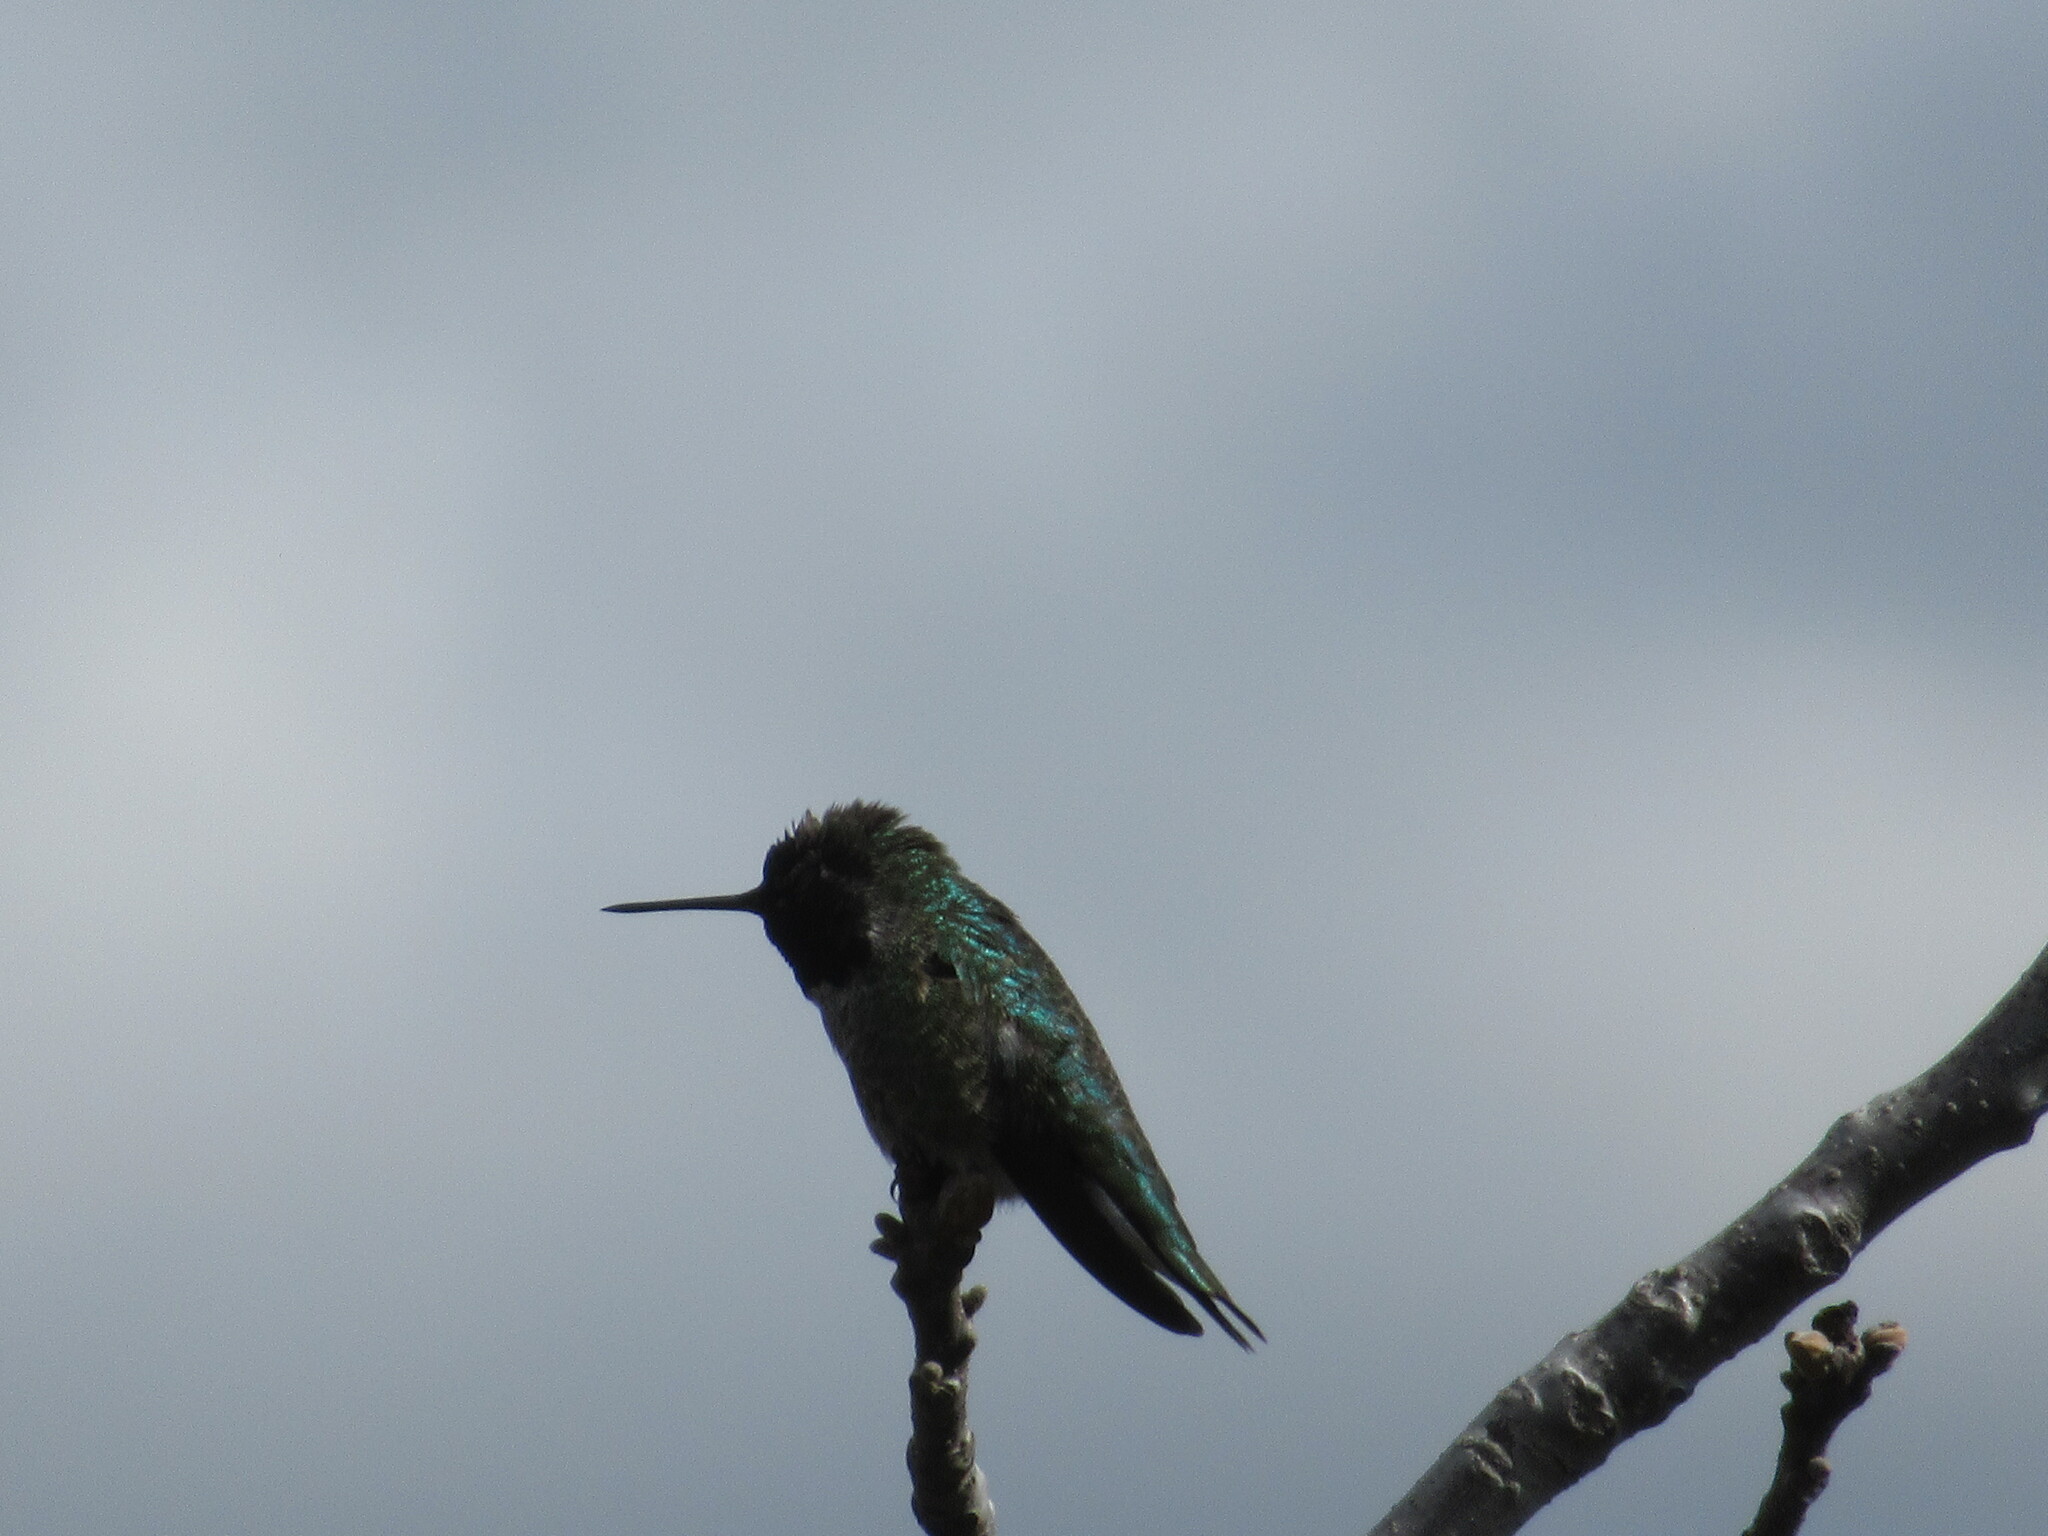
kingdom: Animalia
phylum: Chordata
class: Aves
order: Apodiformes
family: Trochilidae
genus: Calypte
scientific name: Calypte anna
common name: Anna's hummingbird
